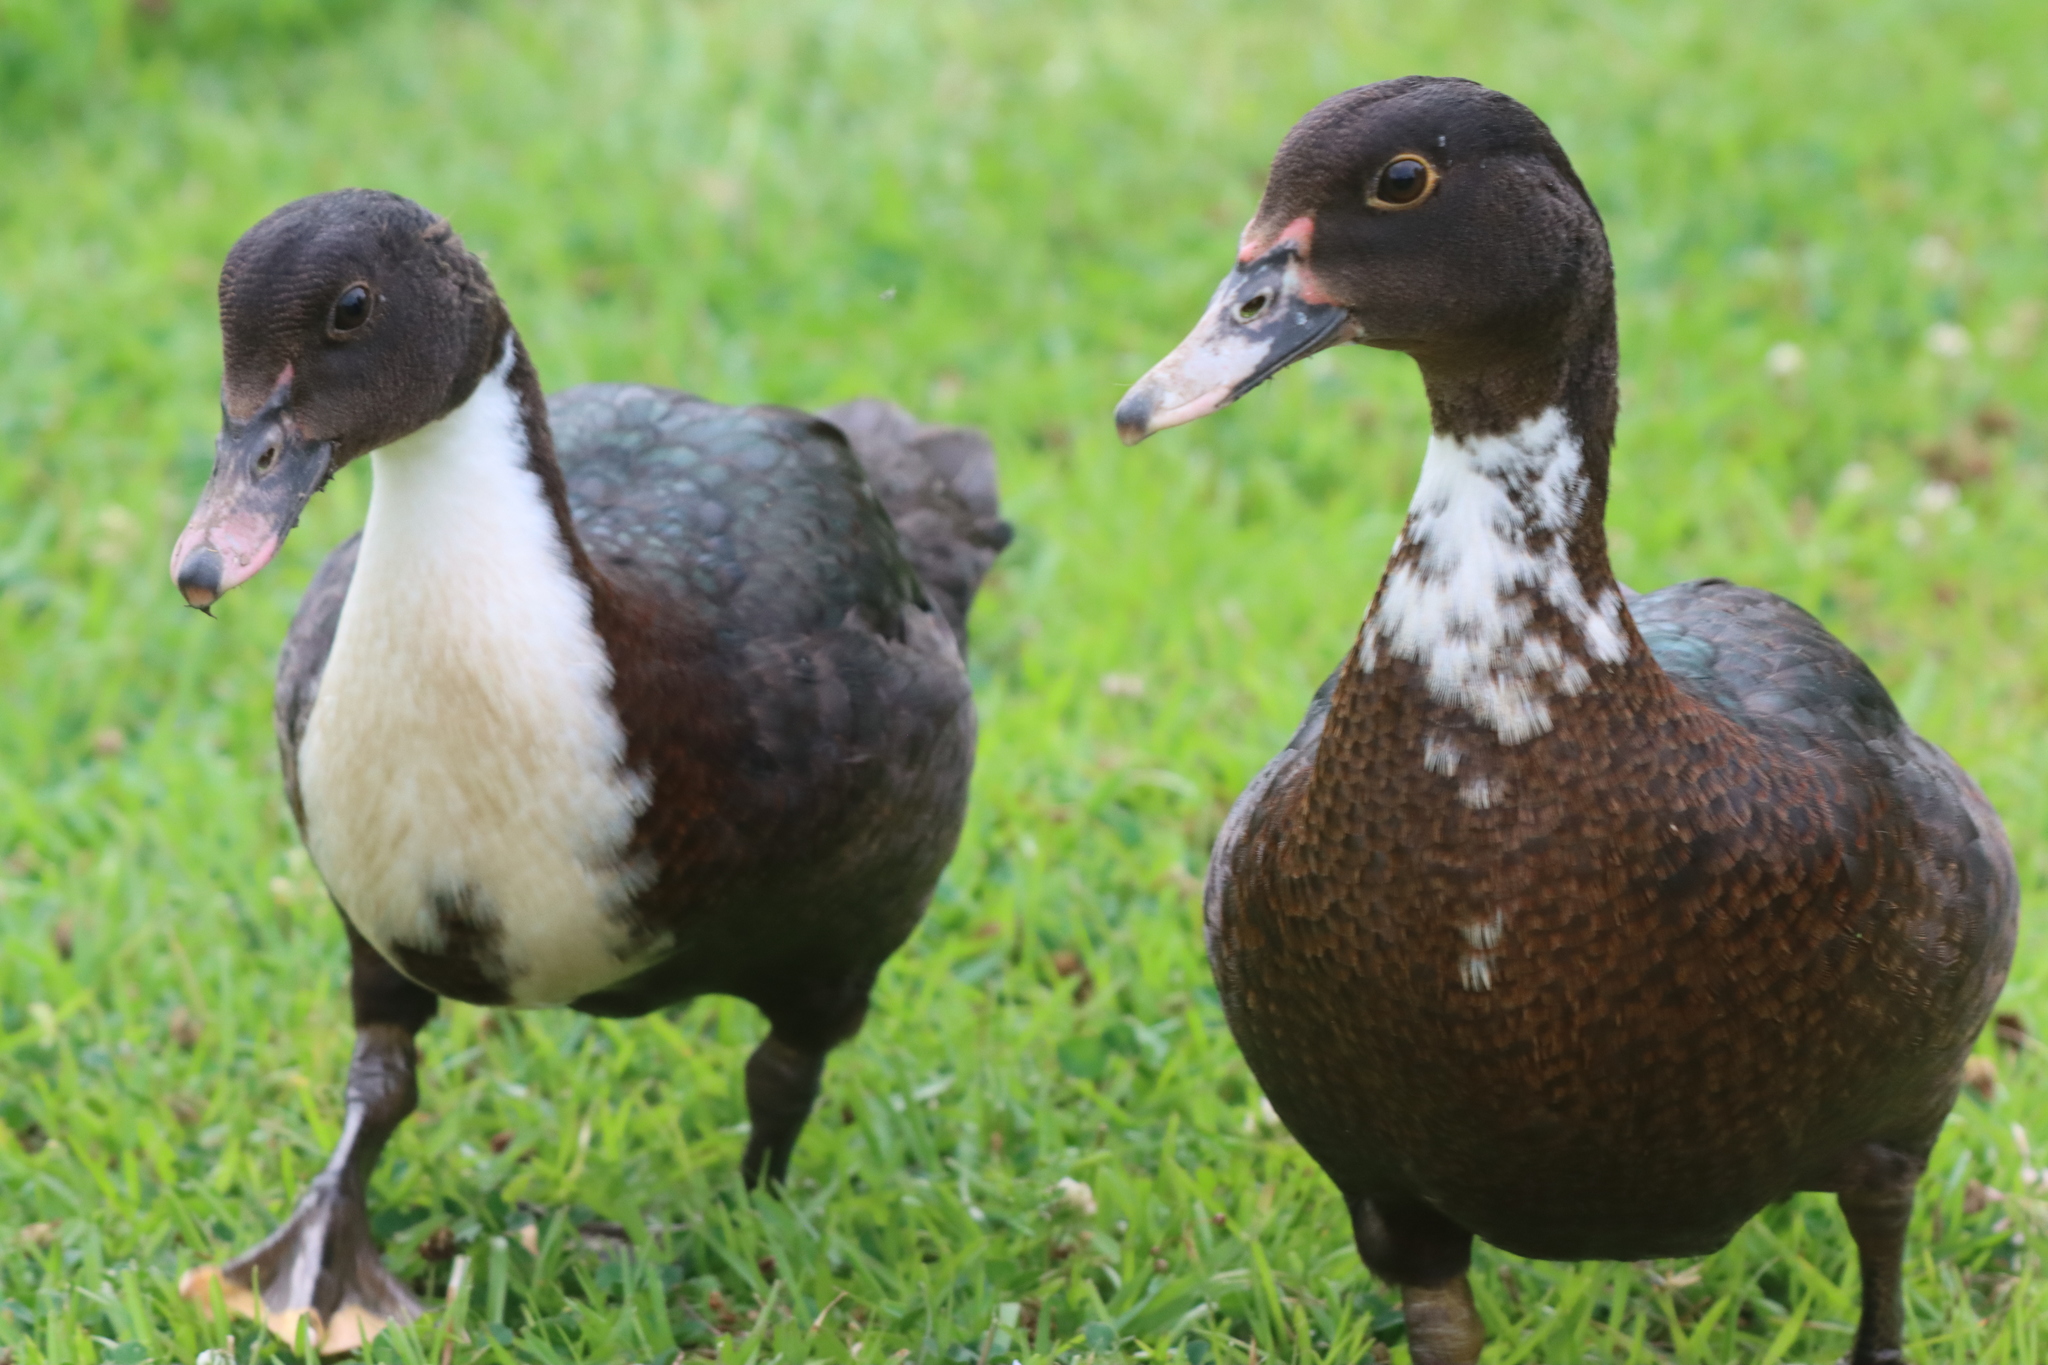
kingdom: Animalia
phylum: Chordata
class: Aves
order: Anseriformes
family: Anatidae
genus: Cairina
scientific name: Cairina moschata
